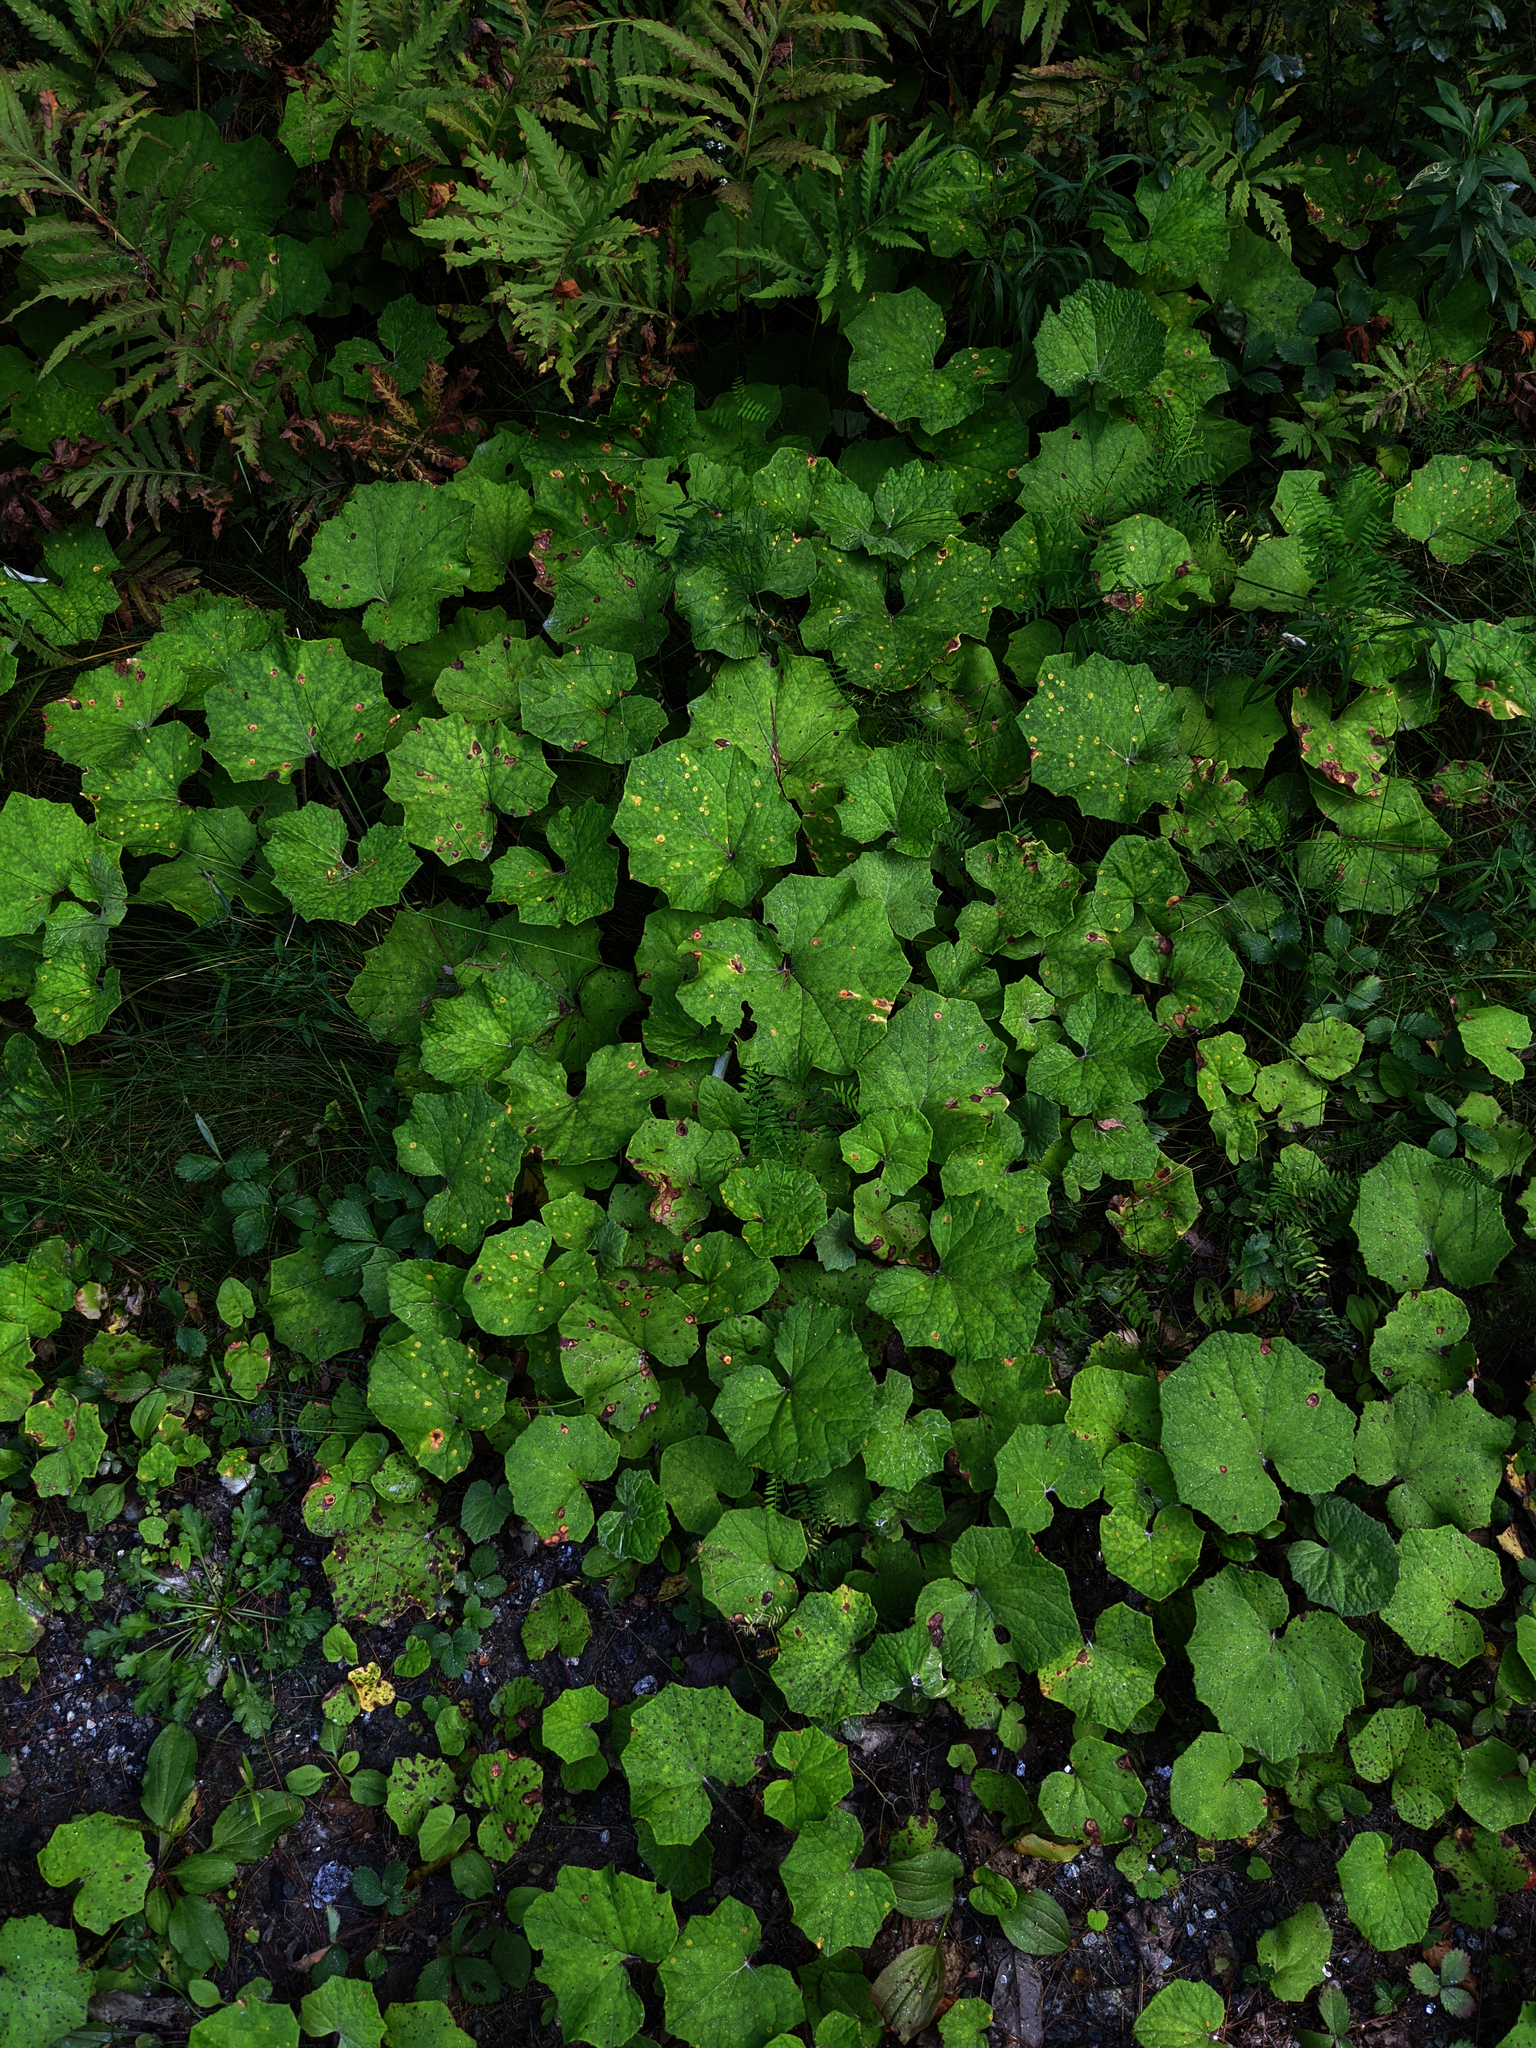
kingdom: Plantae
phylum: Tracheophyta
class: Magnoliopsida
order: Asterales
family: Asteraceae
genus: Tussilago
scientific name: Tussilago farfara
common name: Coltsfoot
